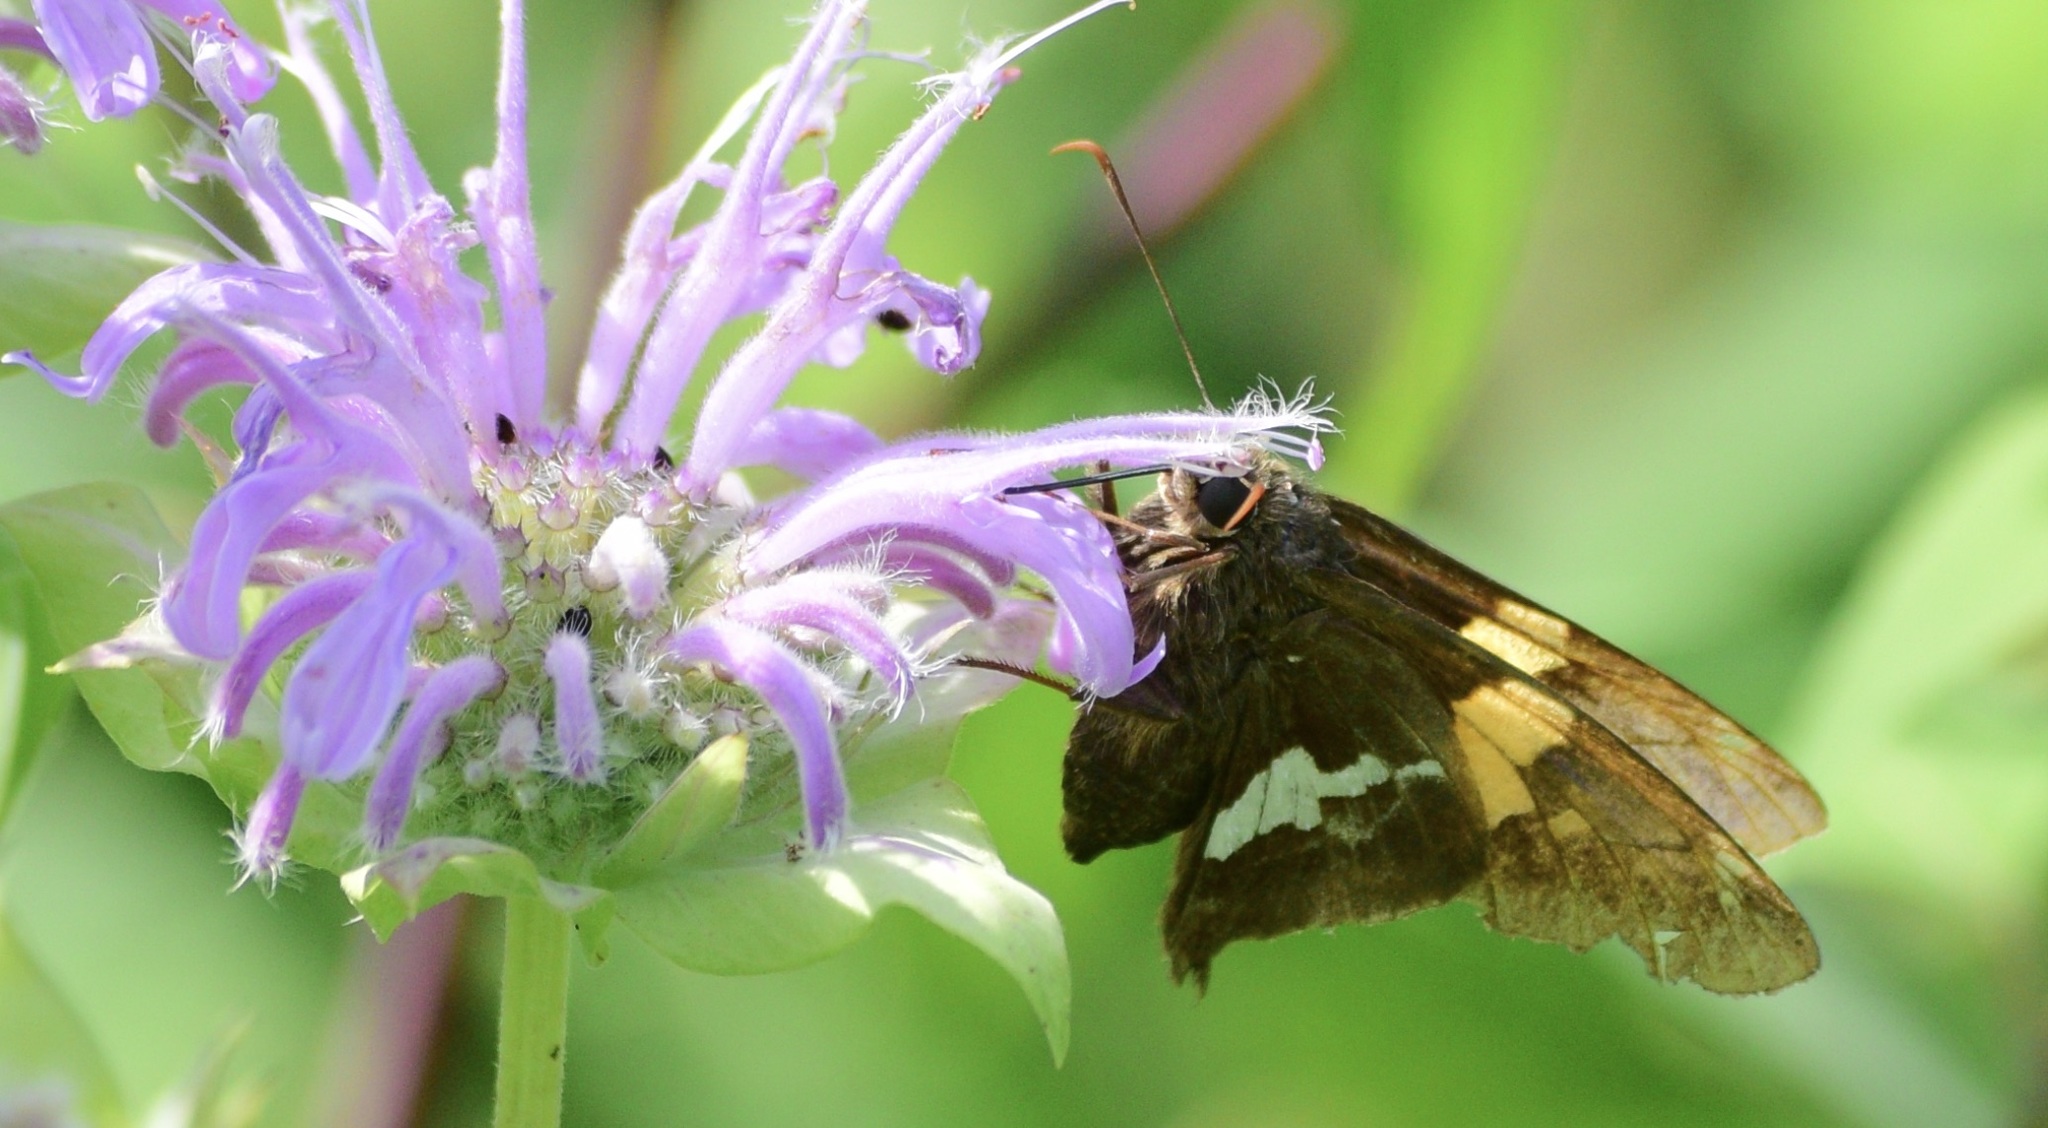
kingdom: Animalia
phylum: Arthropoda
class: Insecta
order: Lepidoptera
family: Hesperiidae
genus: Epargyreus
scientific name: Epargyreus clarus
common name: Silver-spotted skipper
